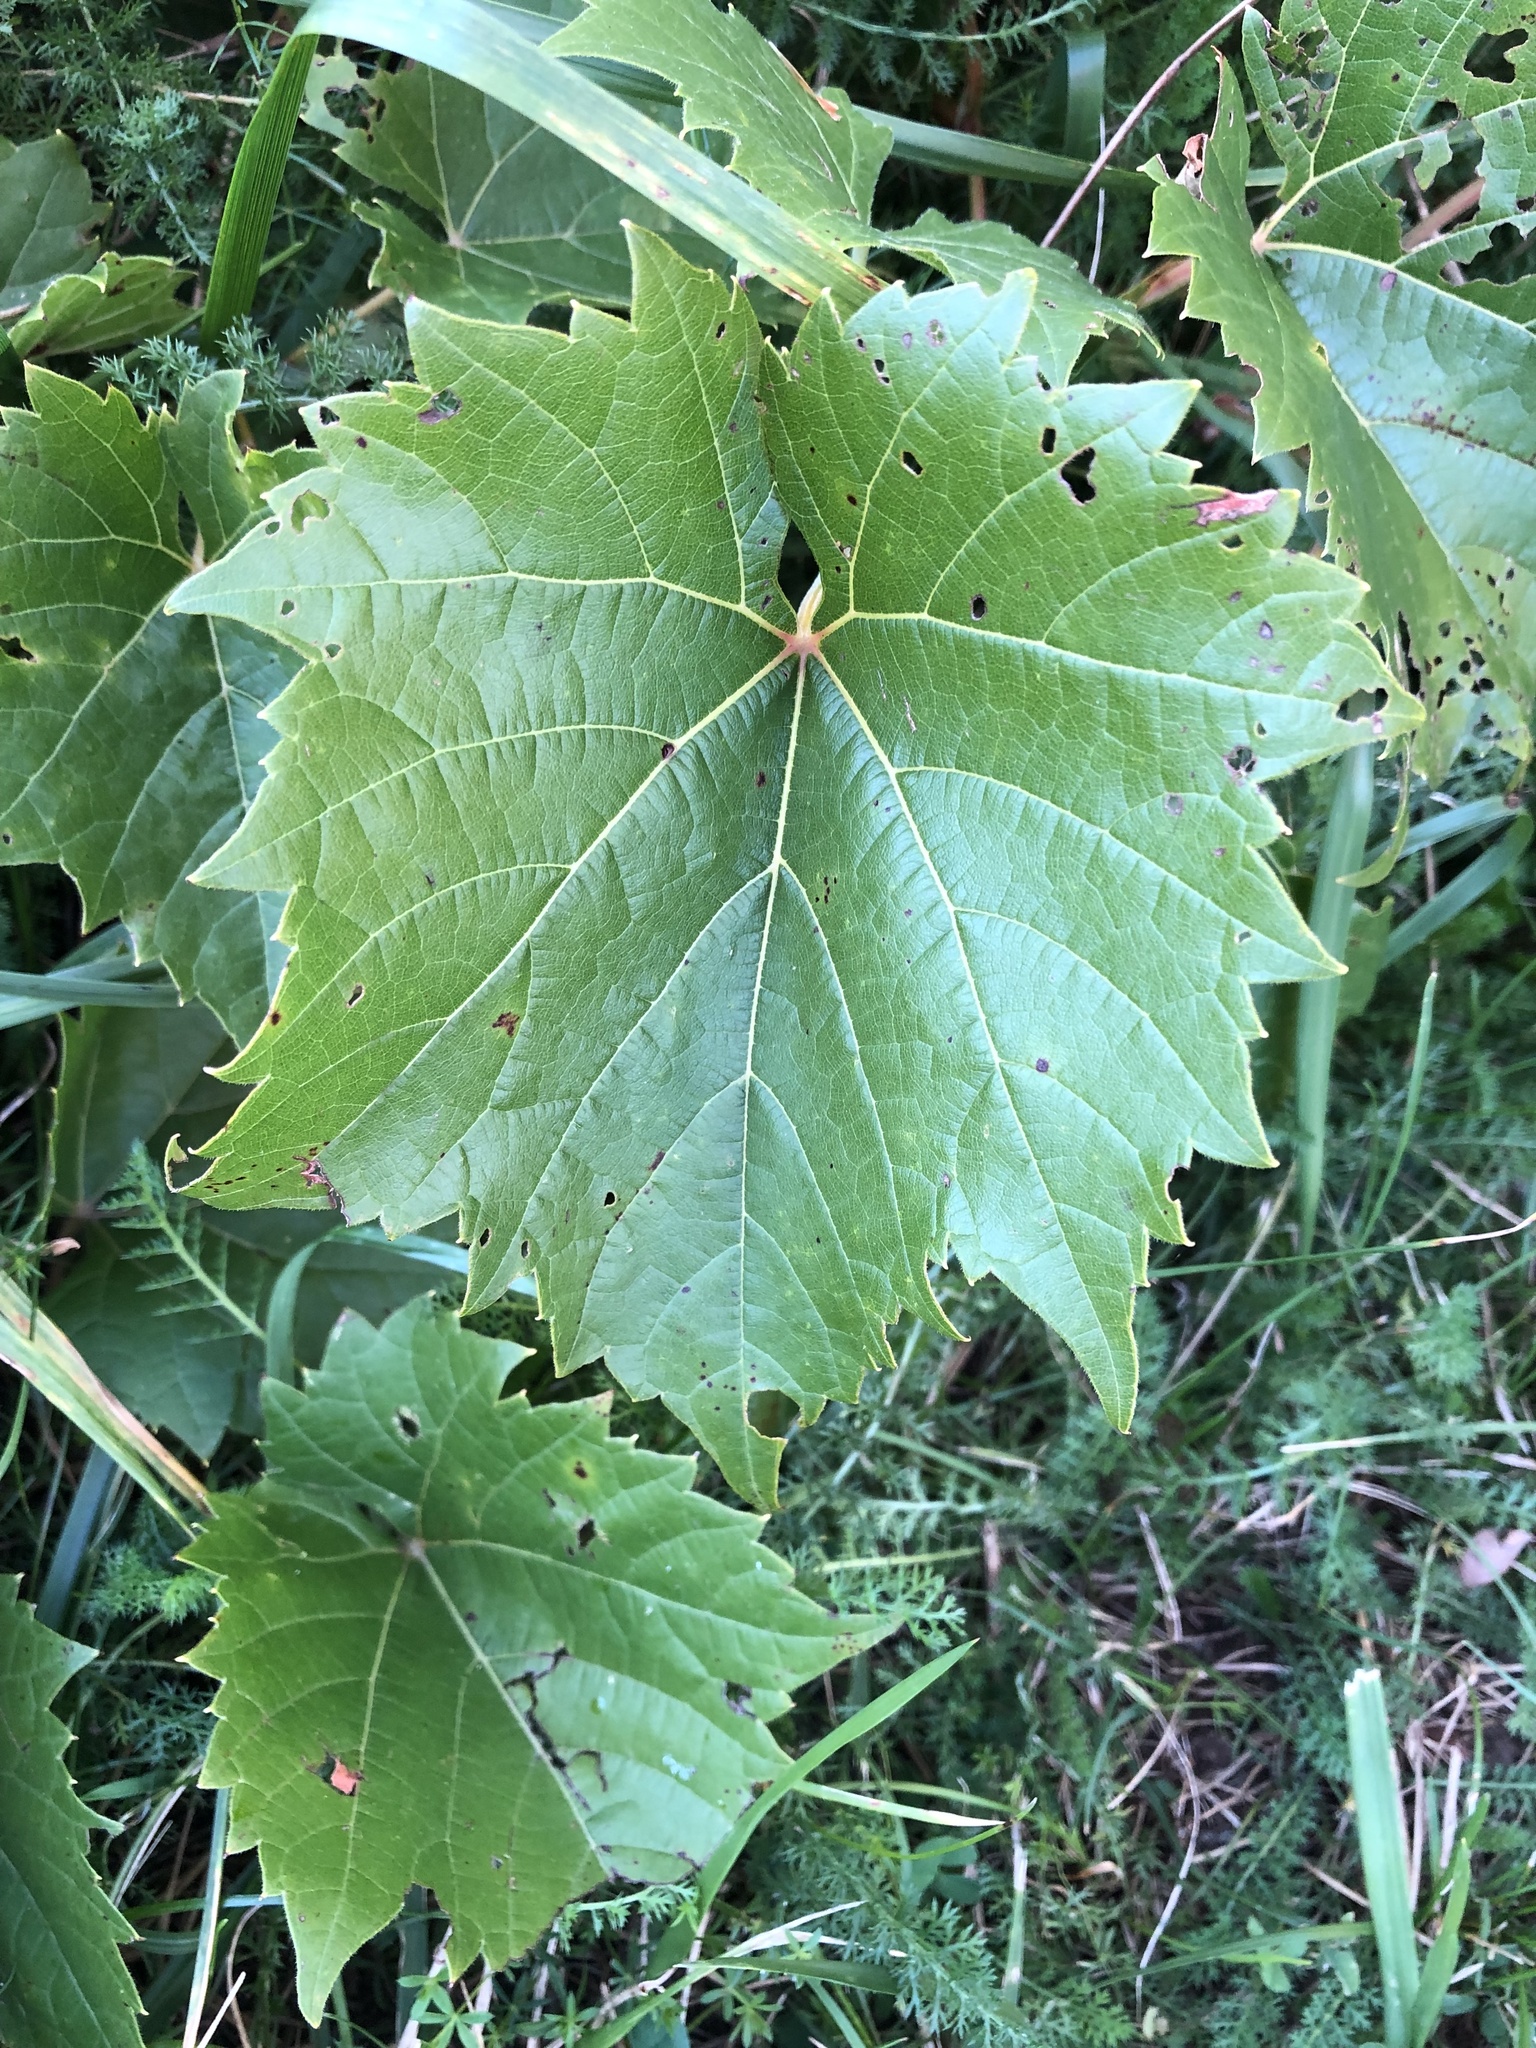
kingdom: Plantae
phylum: Tracheophyta
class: Magnoliopsida
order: Vitales
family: Vitaceae
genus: Vitis
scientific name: Vitis riparia
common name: Frost grape
